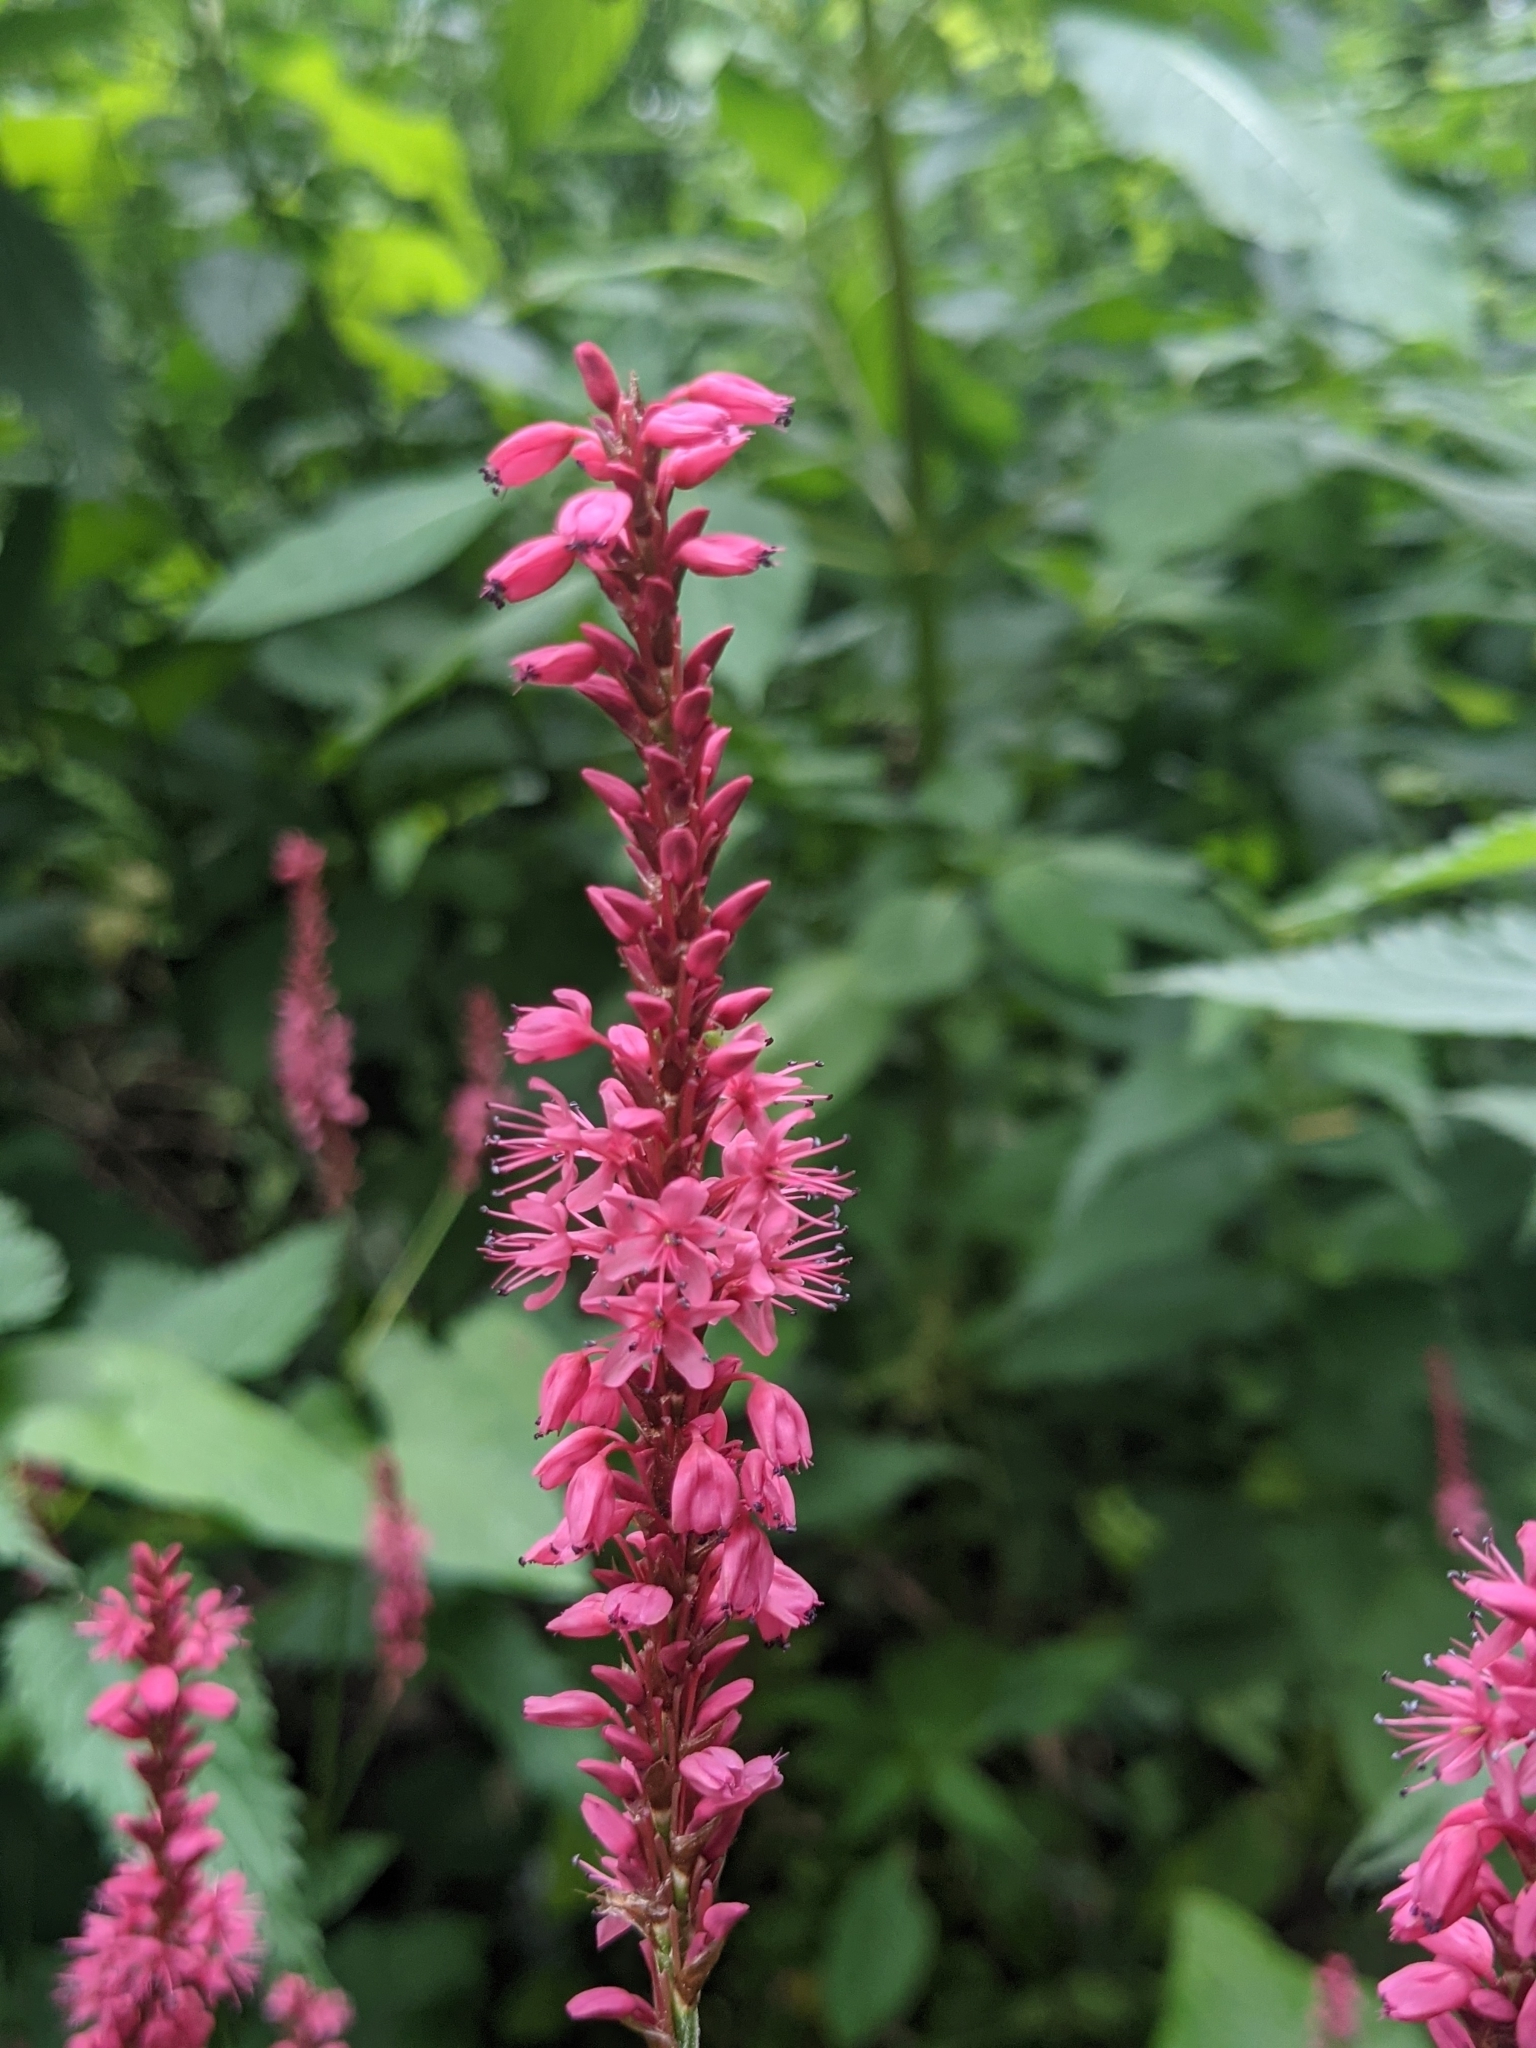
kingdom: Plantae
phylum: Tracheophyta
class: Magnoliopsida
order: Caryophyllales
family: Polygonaceae
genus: Bistorta
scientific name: Bistorta amplexicaulis
